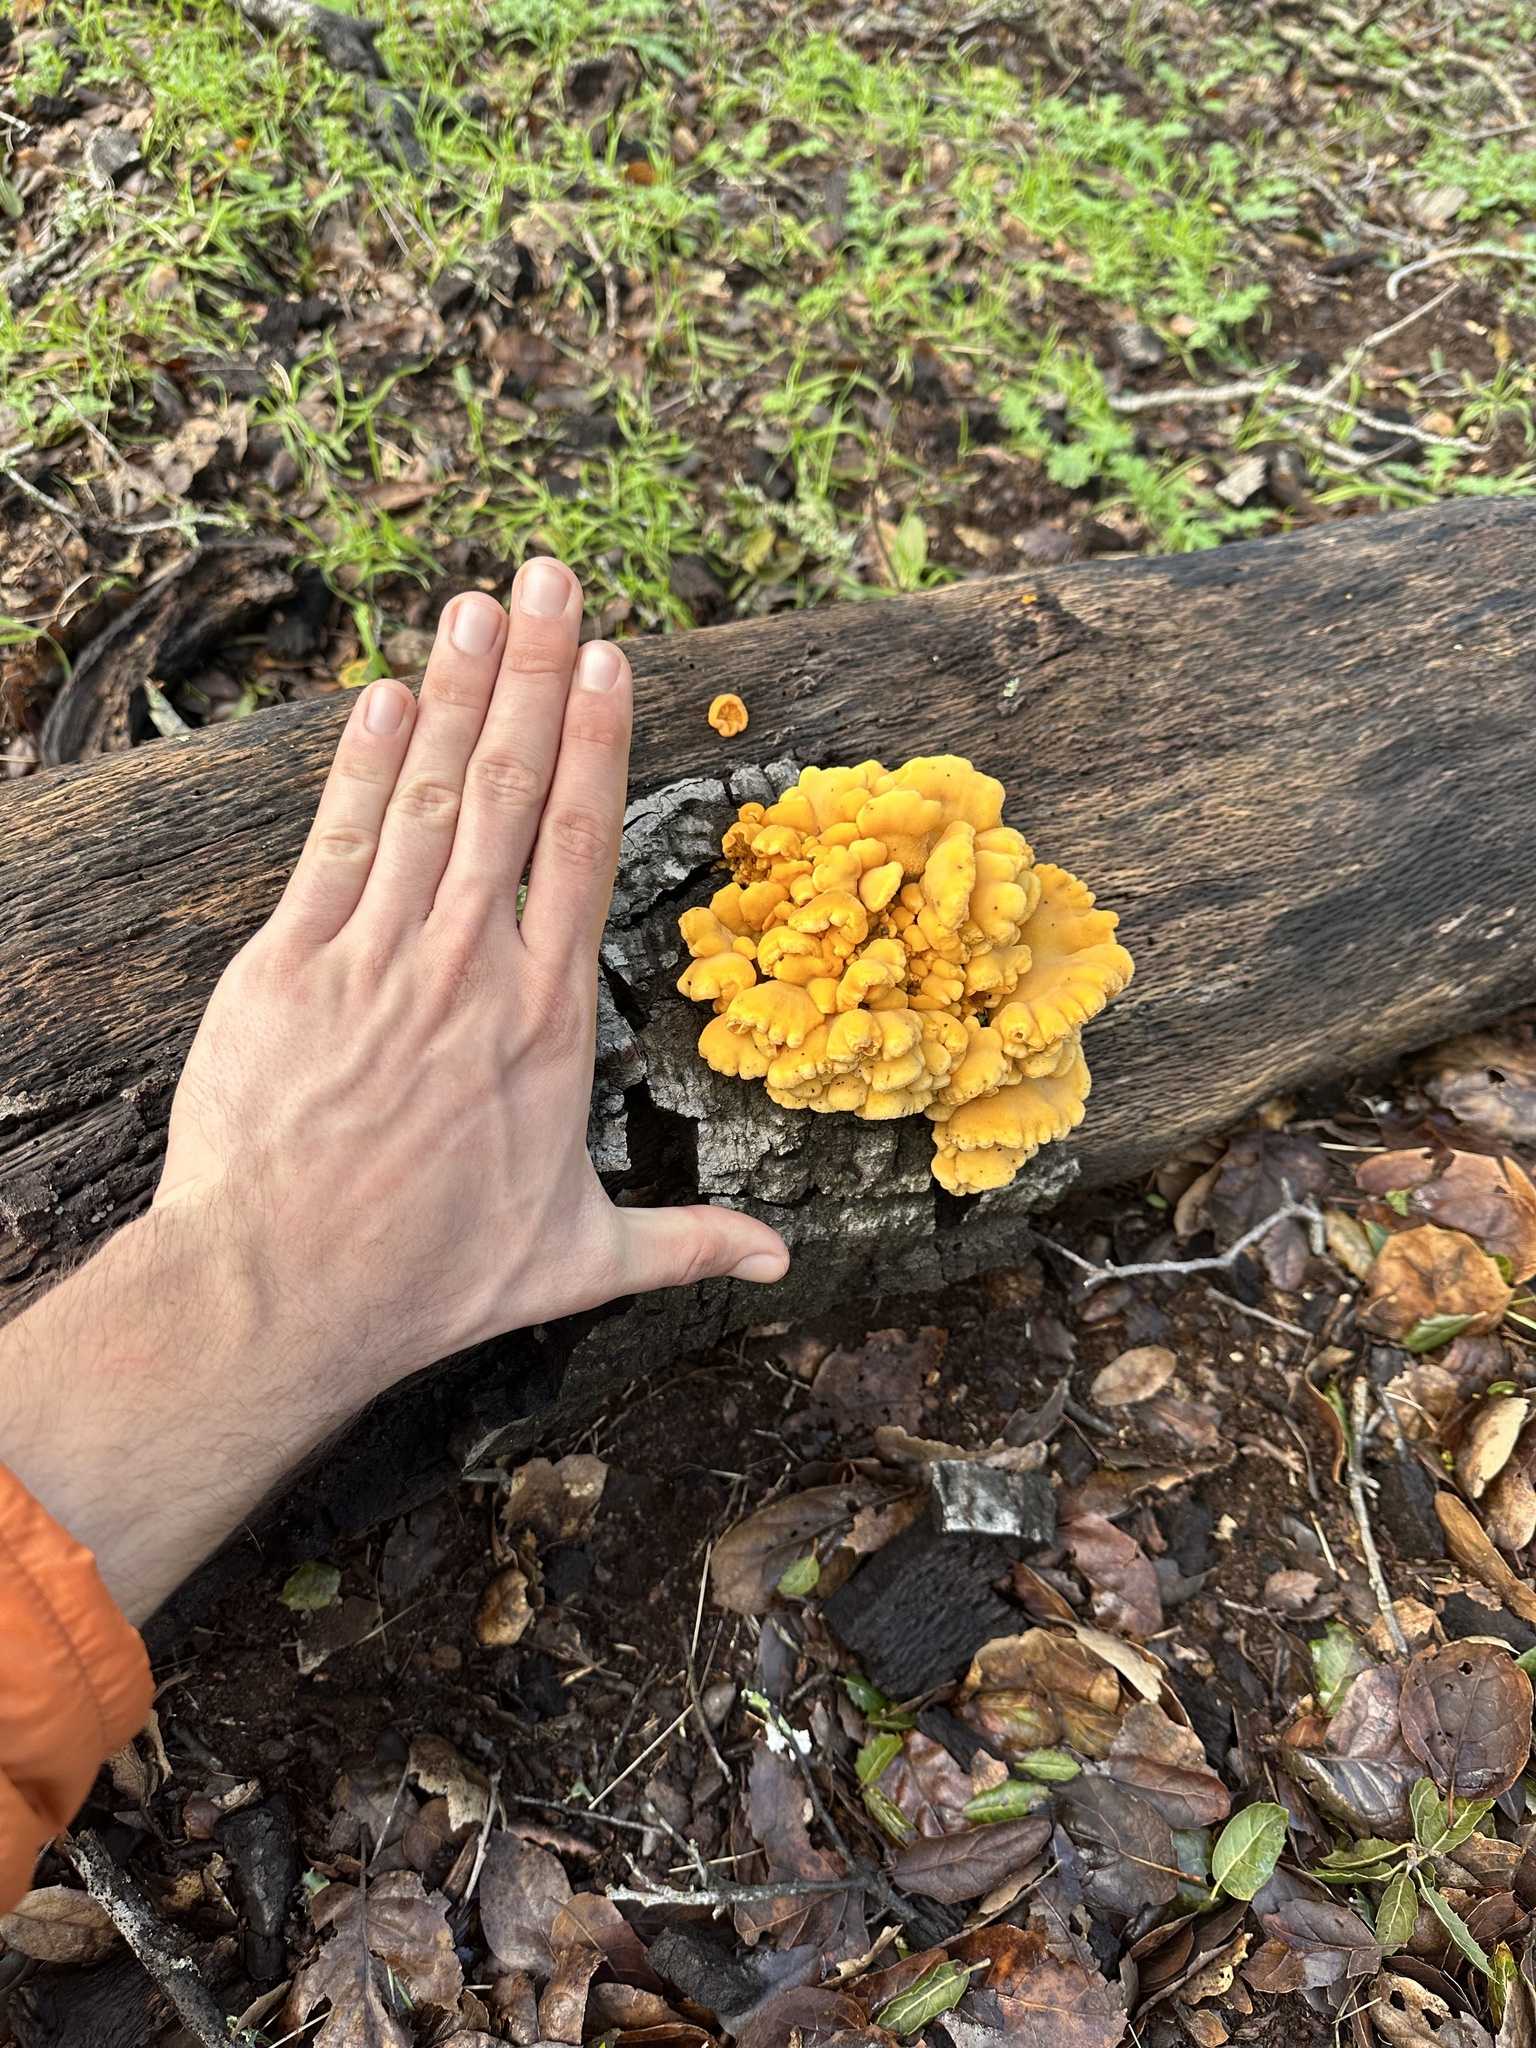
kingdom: Fungi
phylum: Basidiomycota
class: Agaricomycetes
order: Agaricales
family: Phyllotopsidaceae
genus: Phyllotopsis
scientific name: Phyllotopsis nidulans
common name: Orange mock oyster
